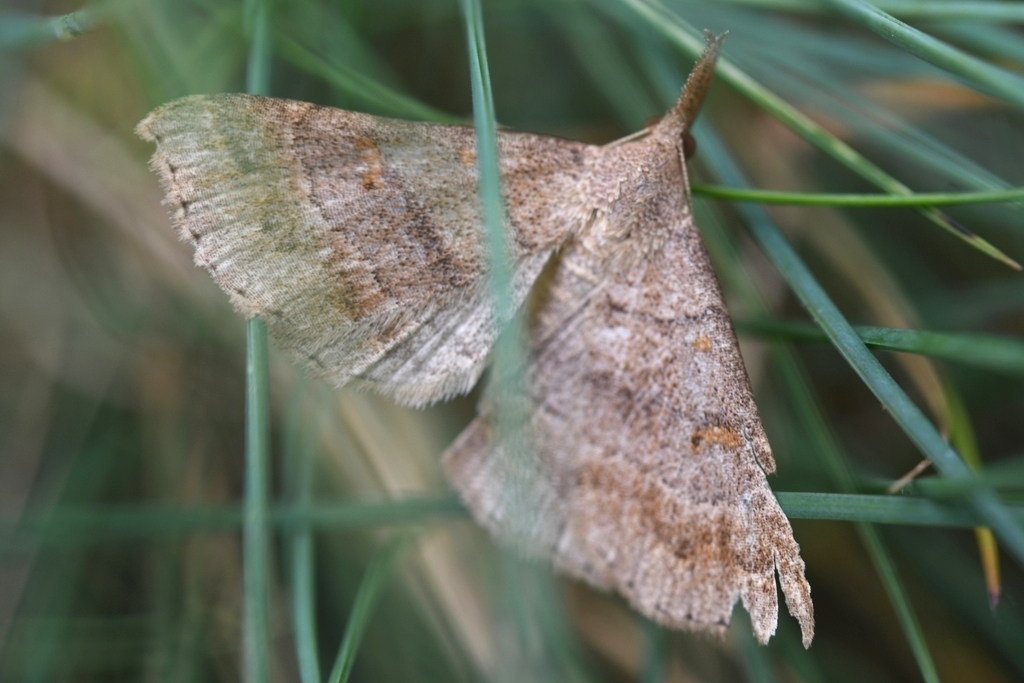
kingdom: Animalia
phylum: Arthropoda
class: Insecta
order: Lepidoptera
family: Erebidae
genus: Renia
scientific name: Renia flavipunctalis
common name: Yellow-spotted renia moth
